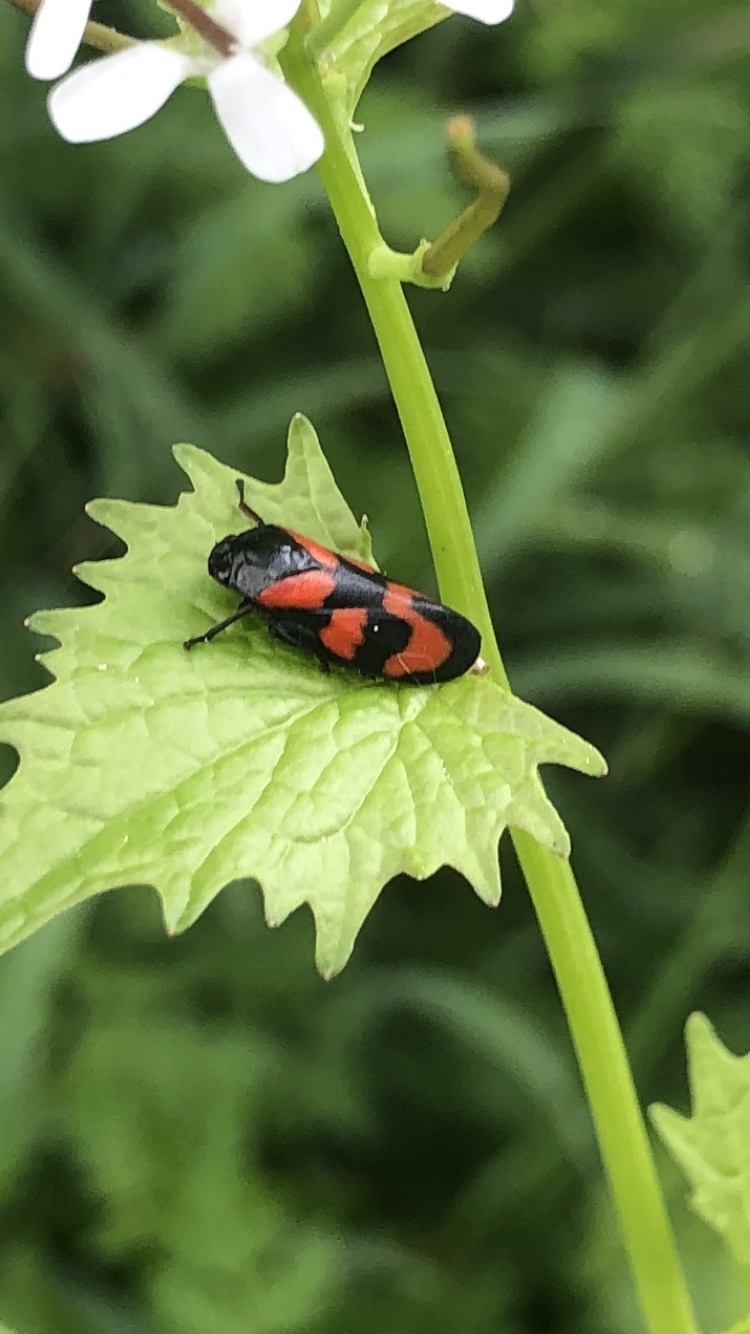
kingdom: Animalia
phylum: Arthropoda
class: Insecta
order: Hemiptera
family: Cercopidae
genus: Cercopis
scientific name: Cercopis vulnerata
